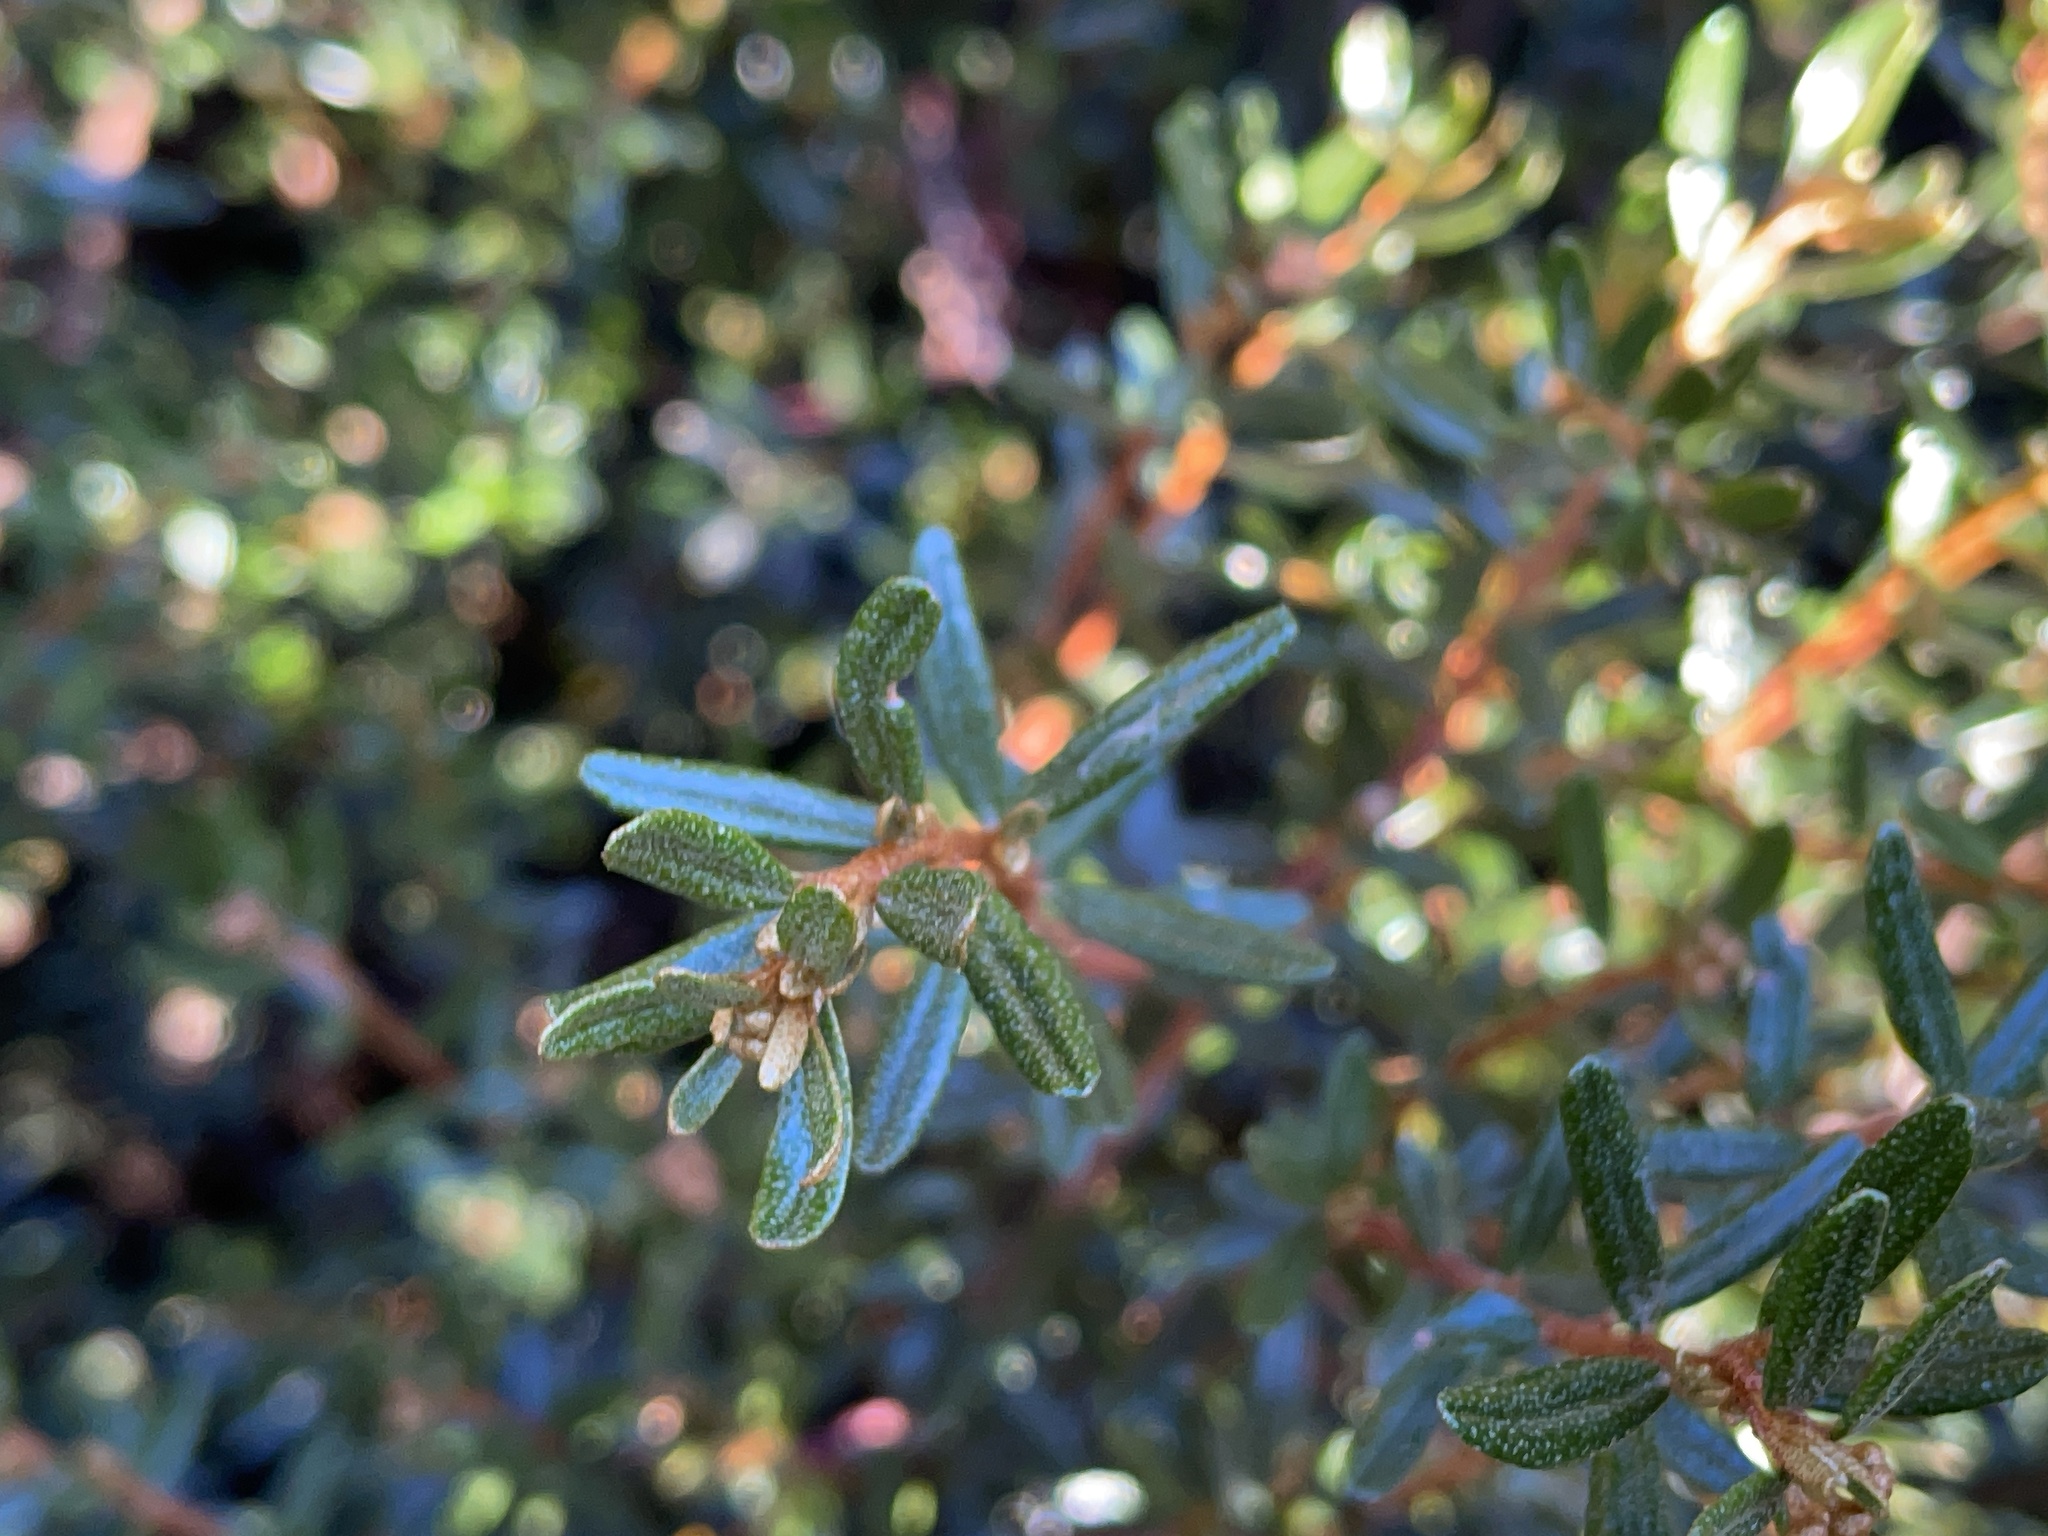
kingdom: Plantae
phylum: Tracheophyta
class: Magnoliopsida
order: Sapindales
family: Rutaceae
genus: Phebalium
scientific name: Phebalium squamulosum
